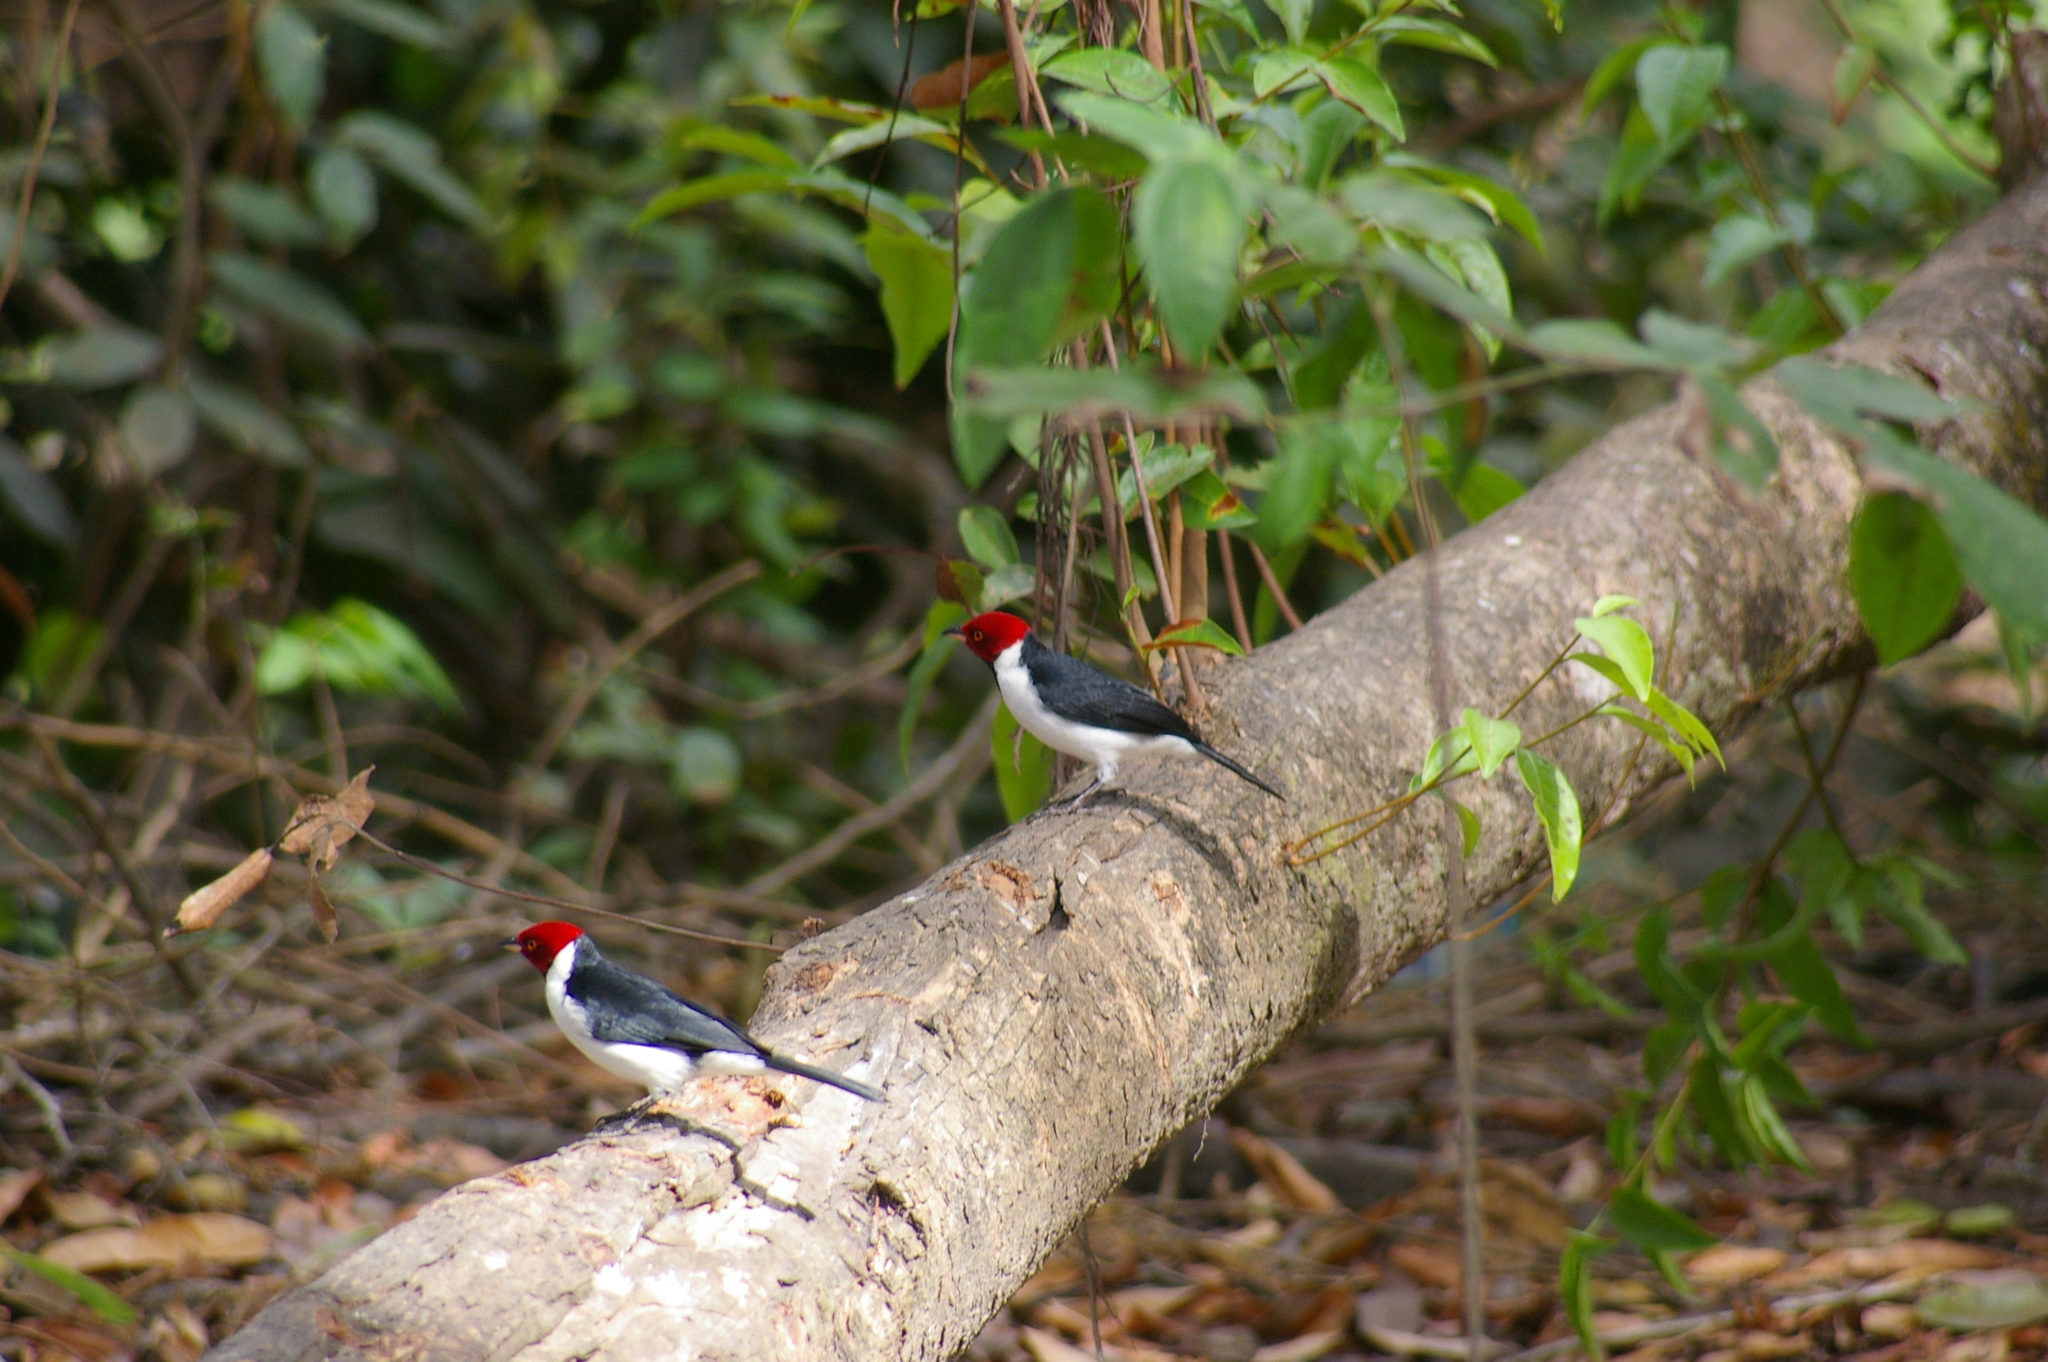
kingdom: Animalia
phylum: Chordata
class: Aves
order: Passeriformes
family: Thraupidae
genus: Paroaria
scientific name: Paroaria gularis
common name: Red-capped cardinal
